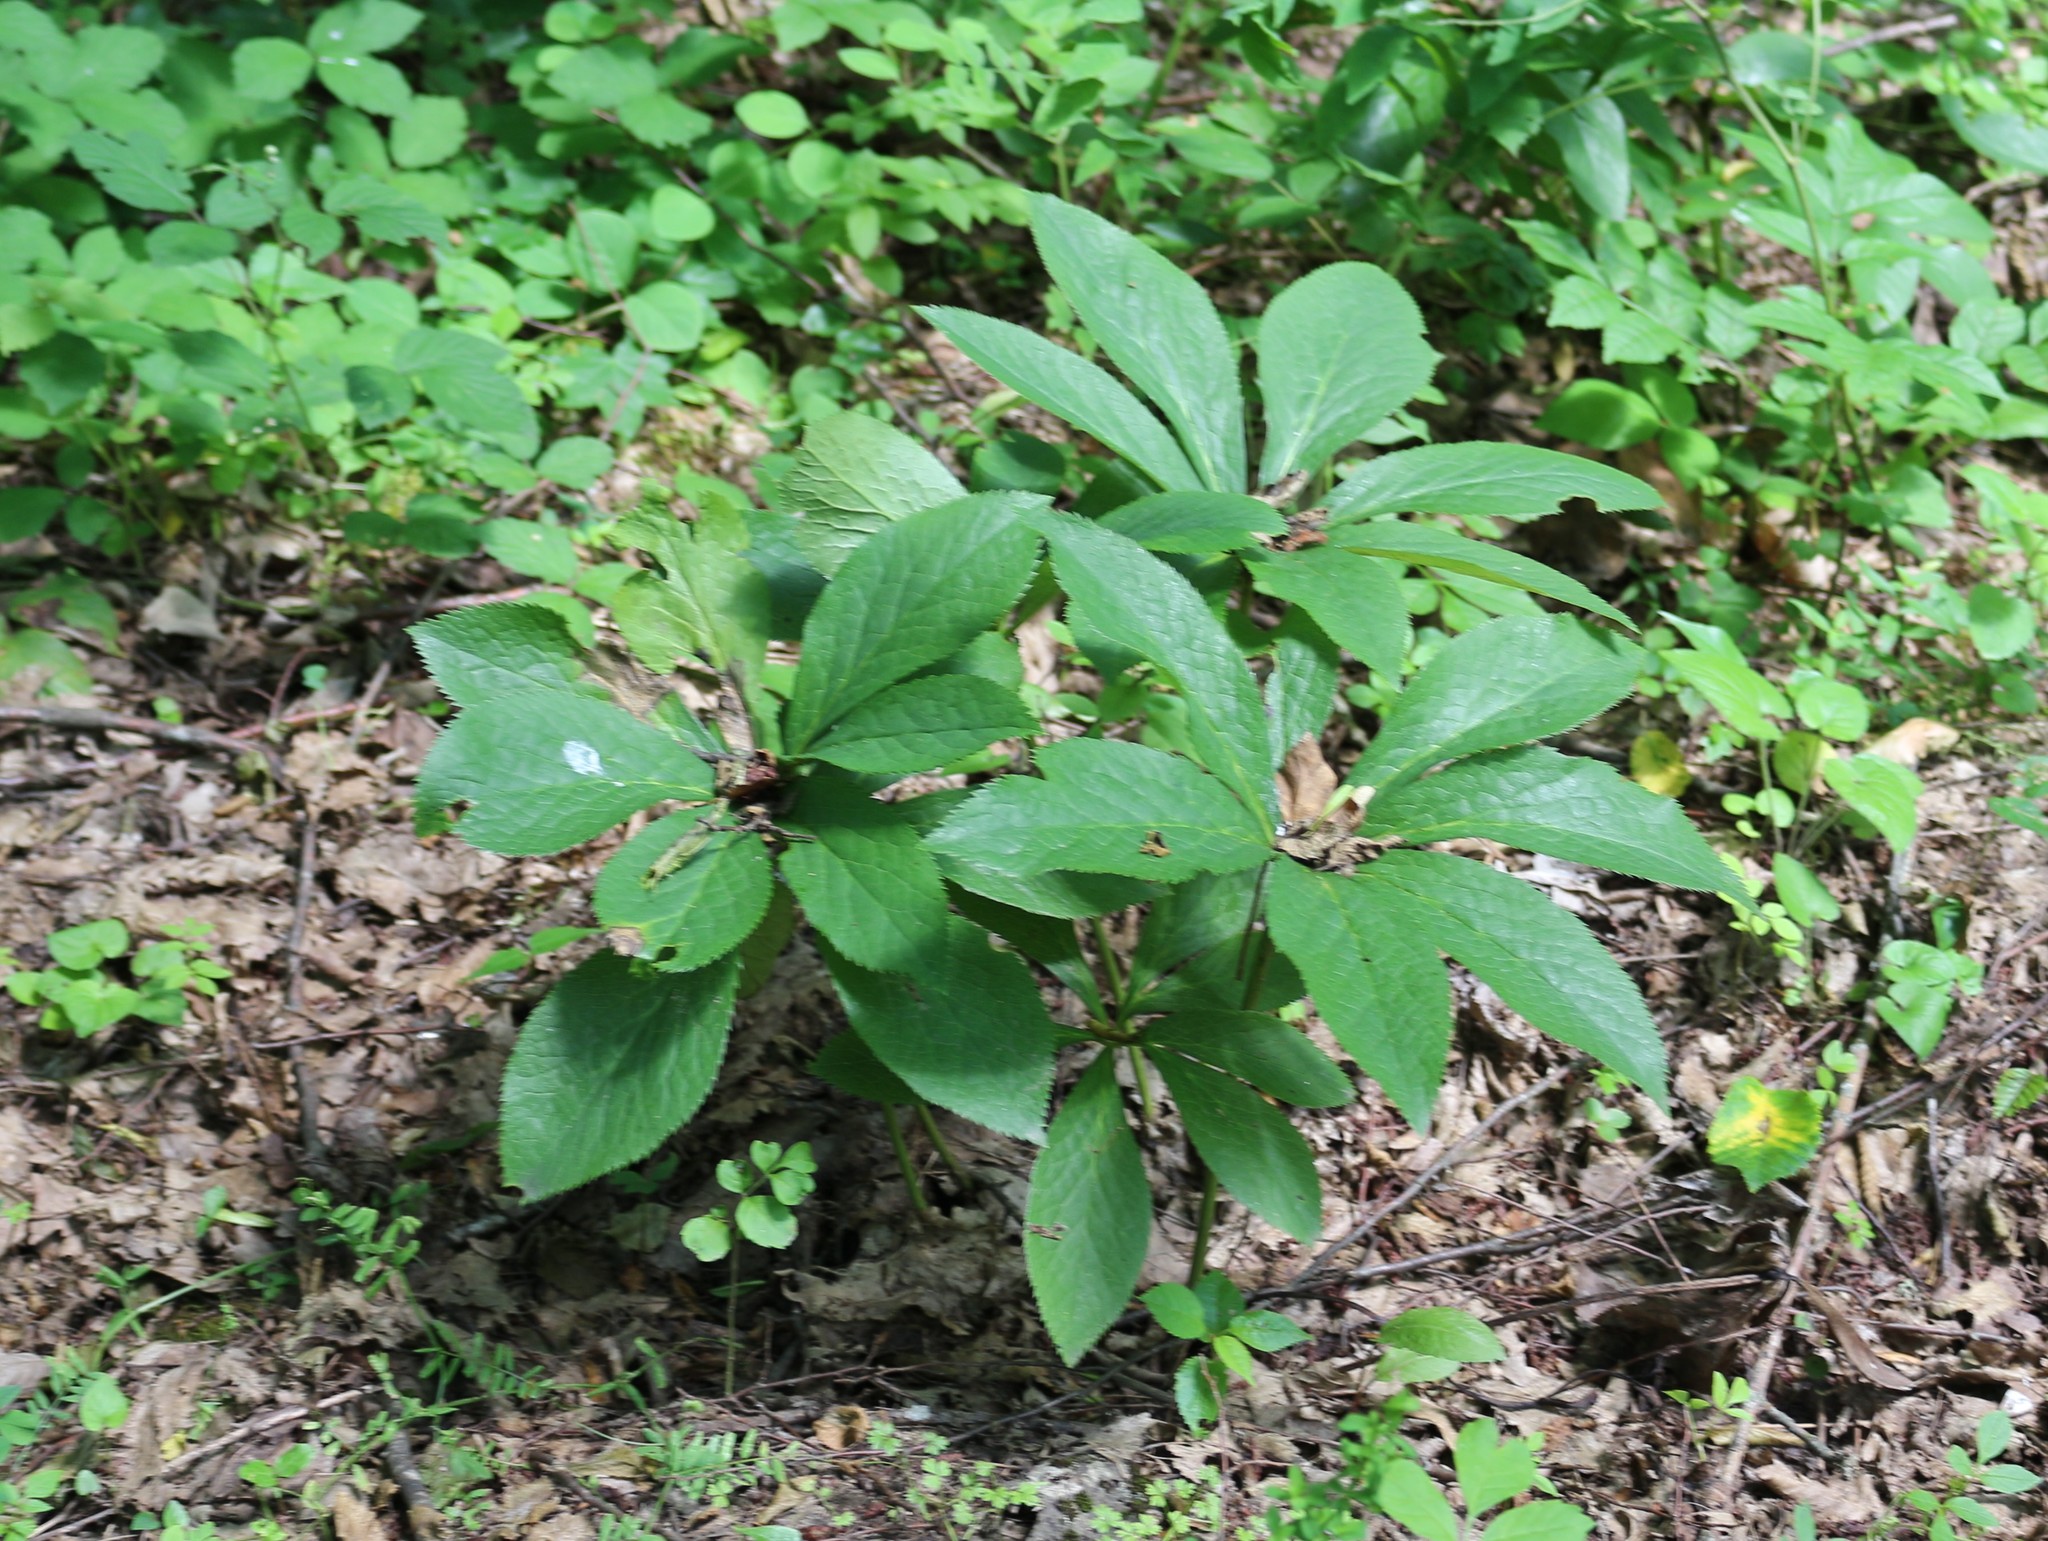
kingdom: Plantae
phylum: Tracheophyta
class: Magnoliopsida
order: Ranunculales
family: Ranunculaceae
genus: Helleborus
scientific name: Helleborus orientalis
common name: Lenten-rose
